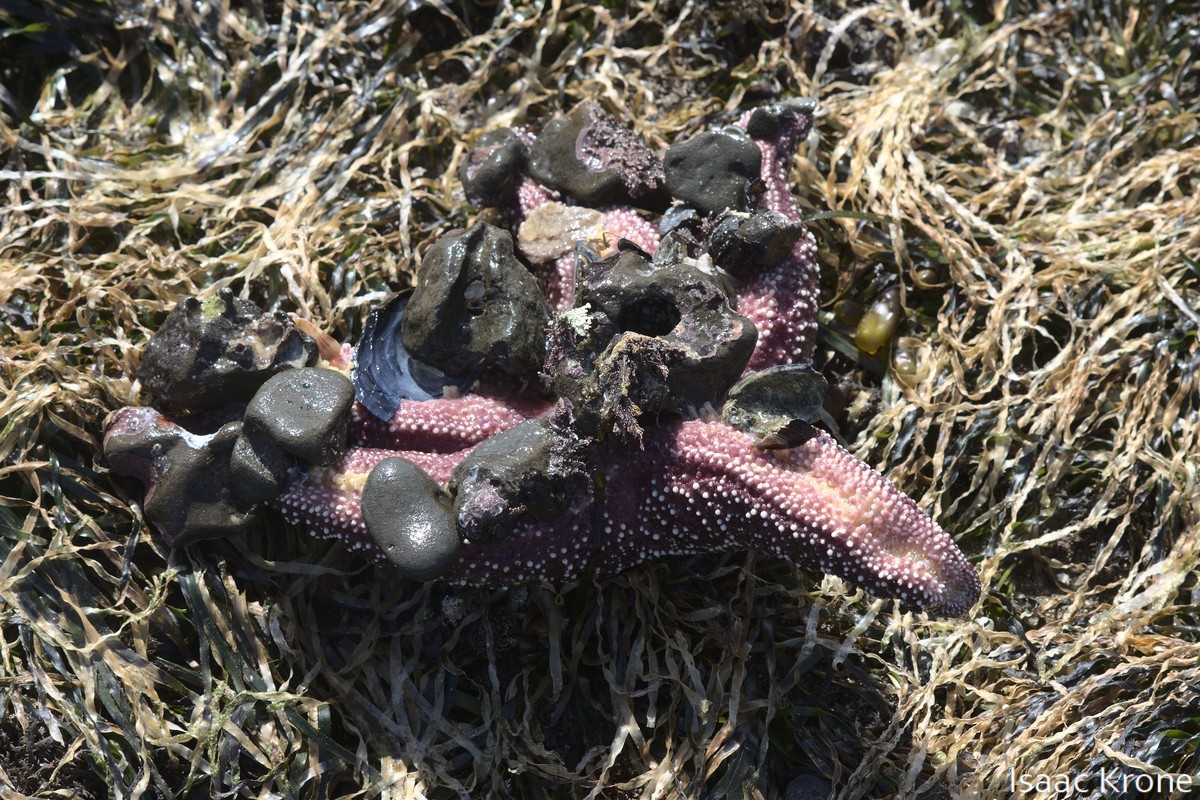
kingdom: Animalia
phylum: Echinodermata
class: Asteroidea
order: Forcipulatida
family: Asteriidae
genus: Pisaster
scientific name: Pisaster ochraceus
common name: Ochre stars
